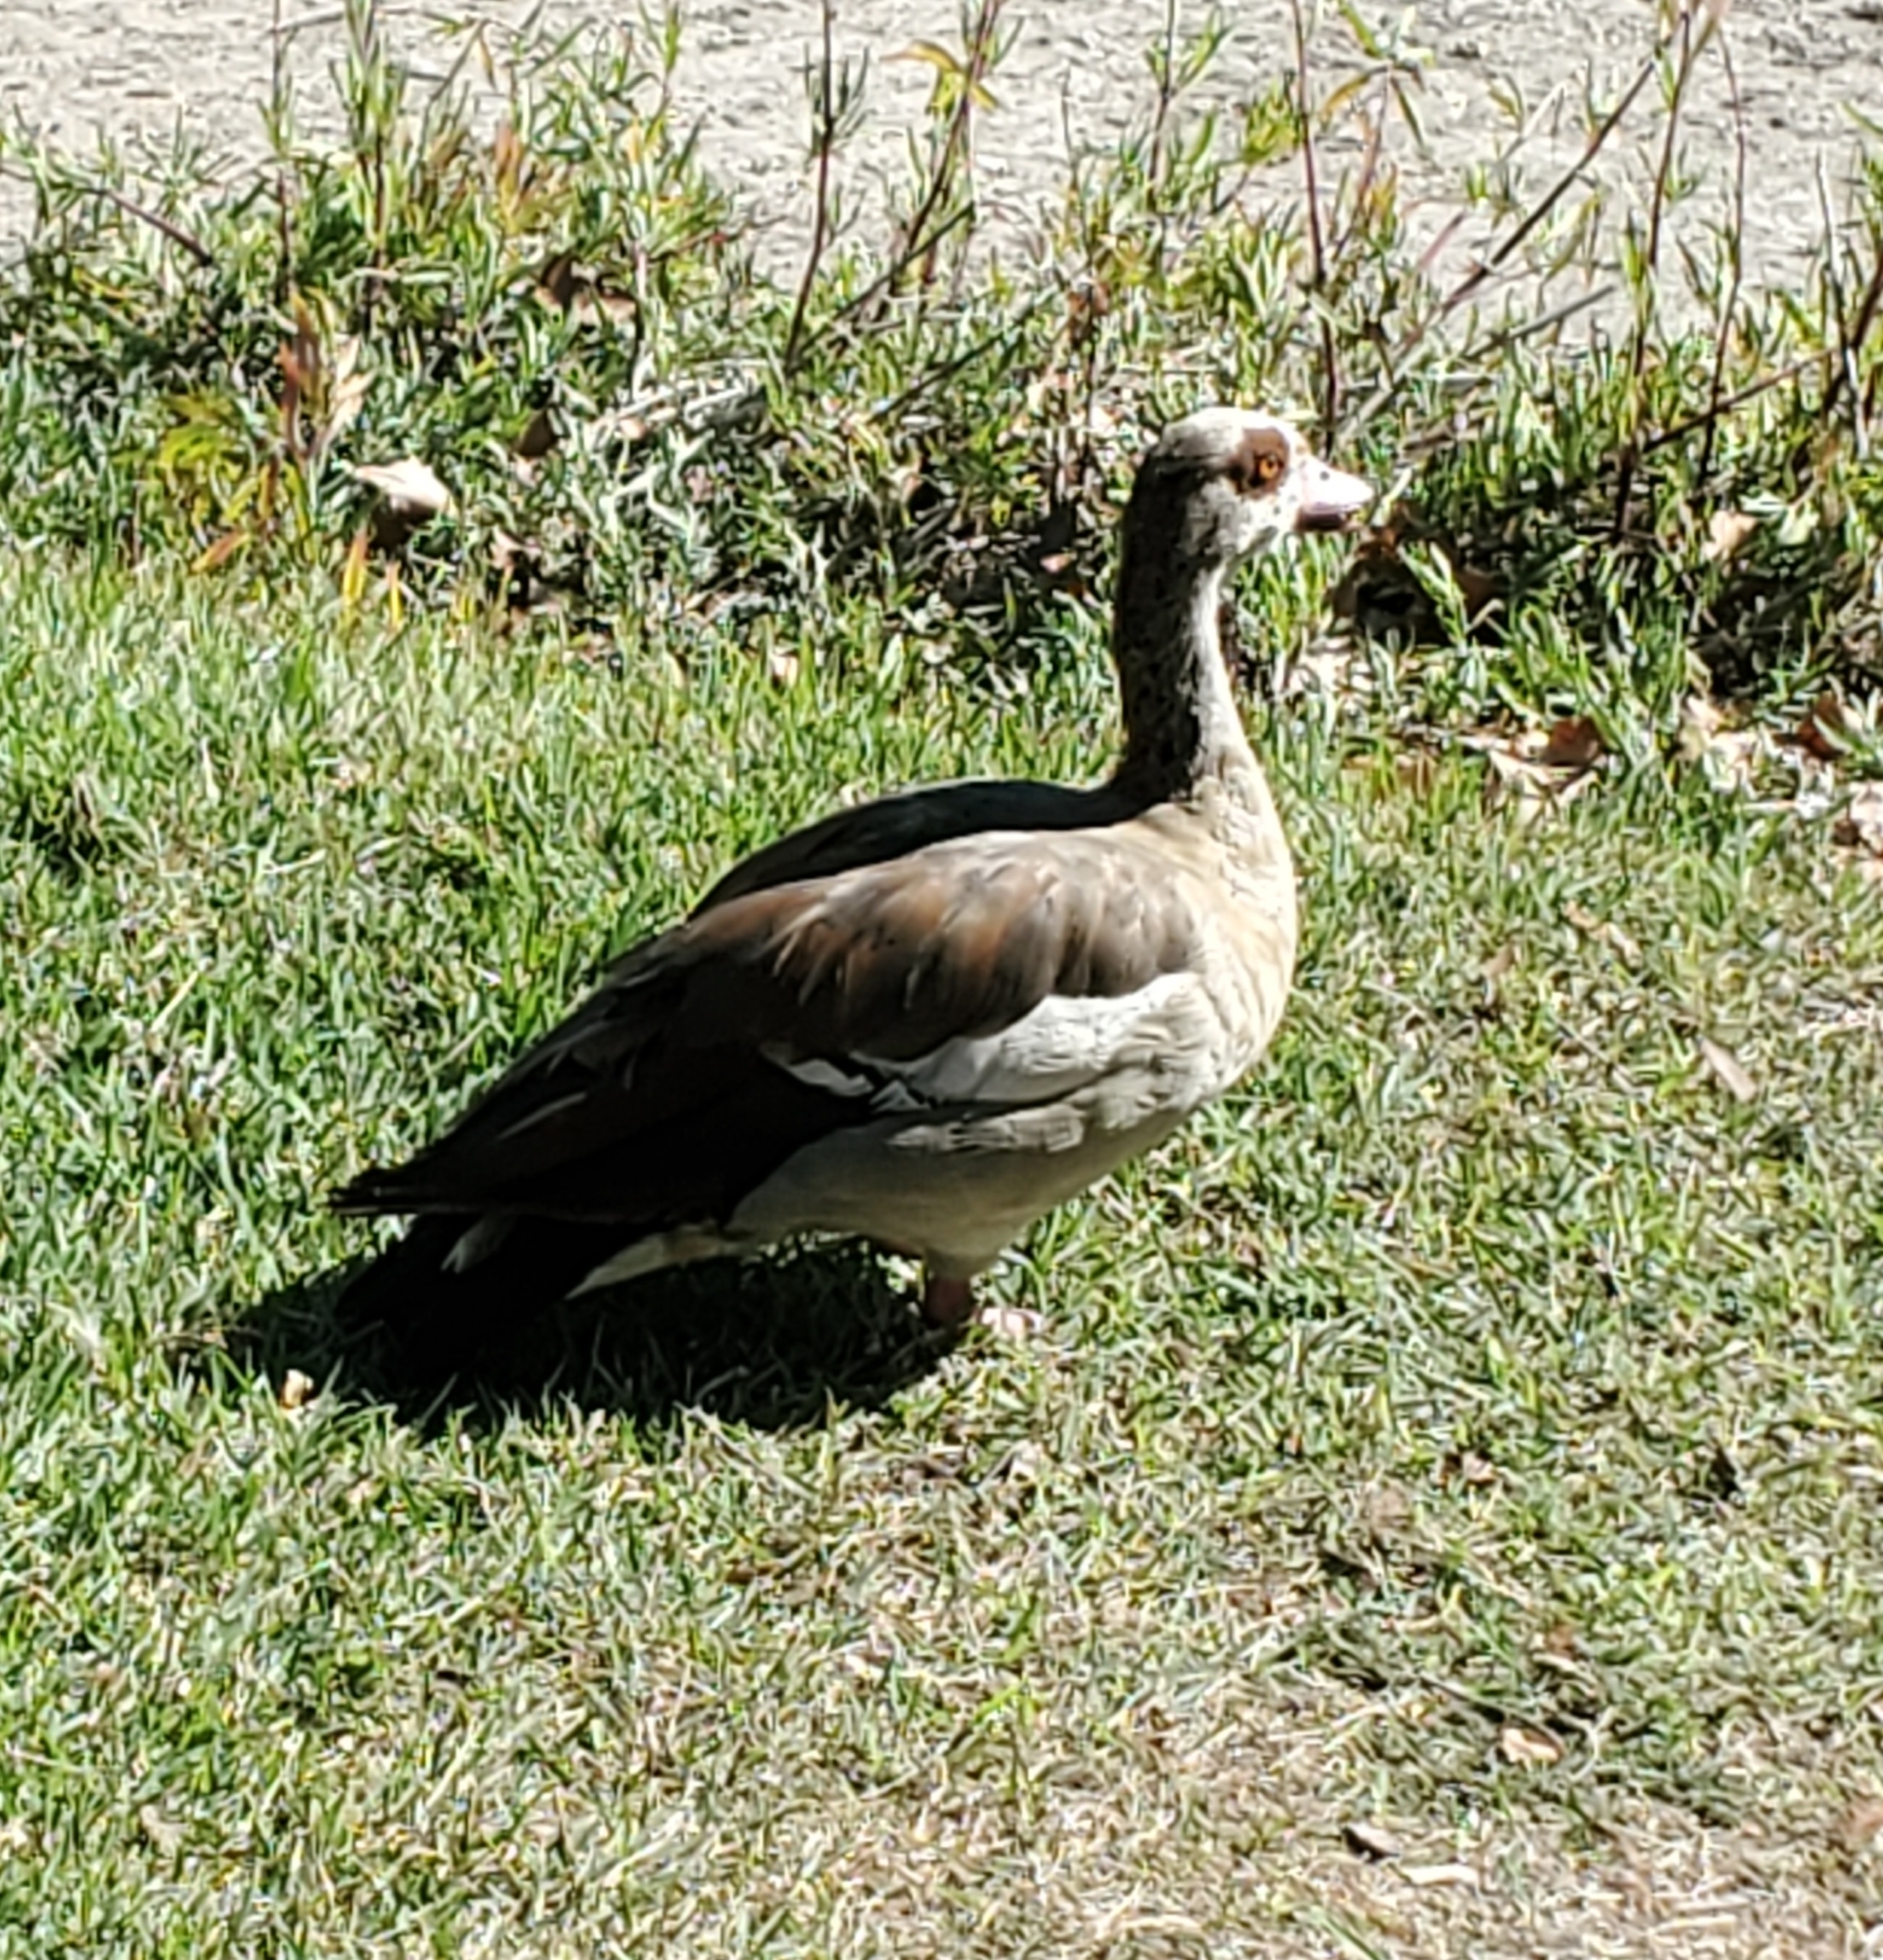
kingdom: Animalia
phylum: Chordata
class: Aves
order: Anseriformes
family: Anatidae
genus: Alopochen
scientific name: Alopochen aegyptiaca
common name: Egyptian goose
